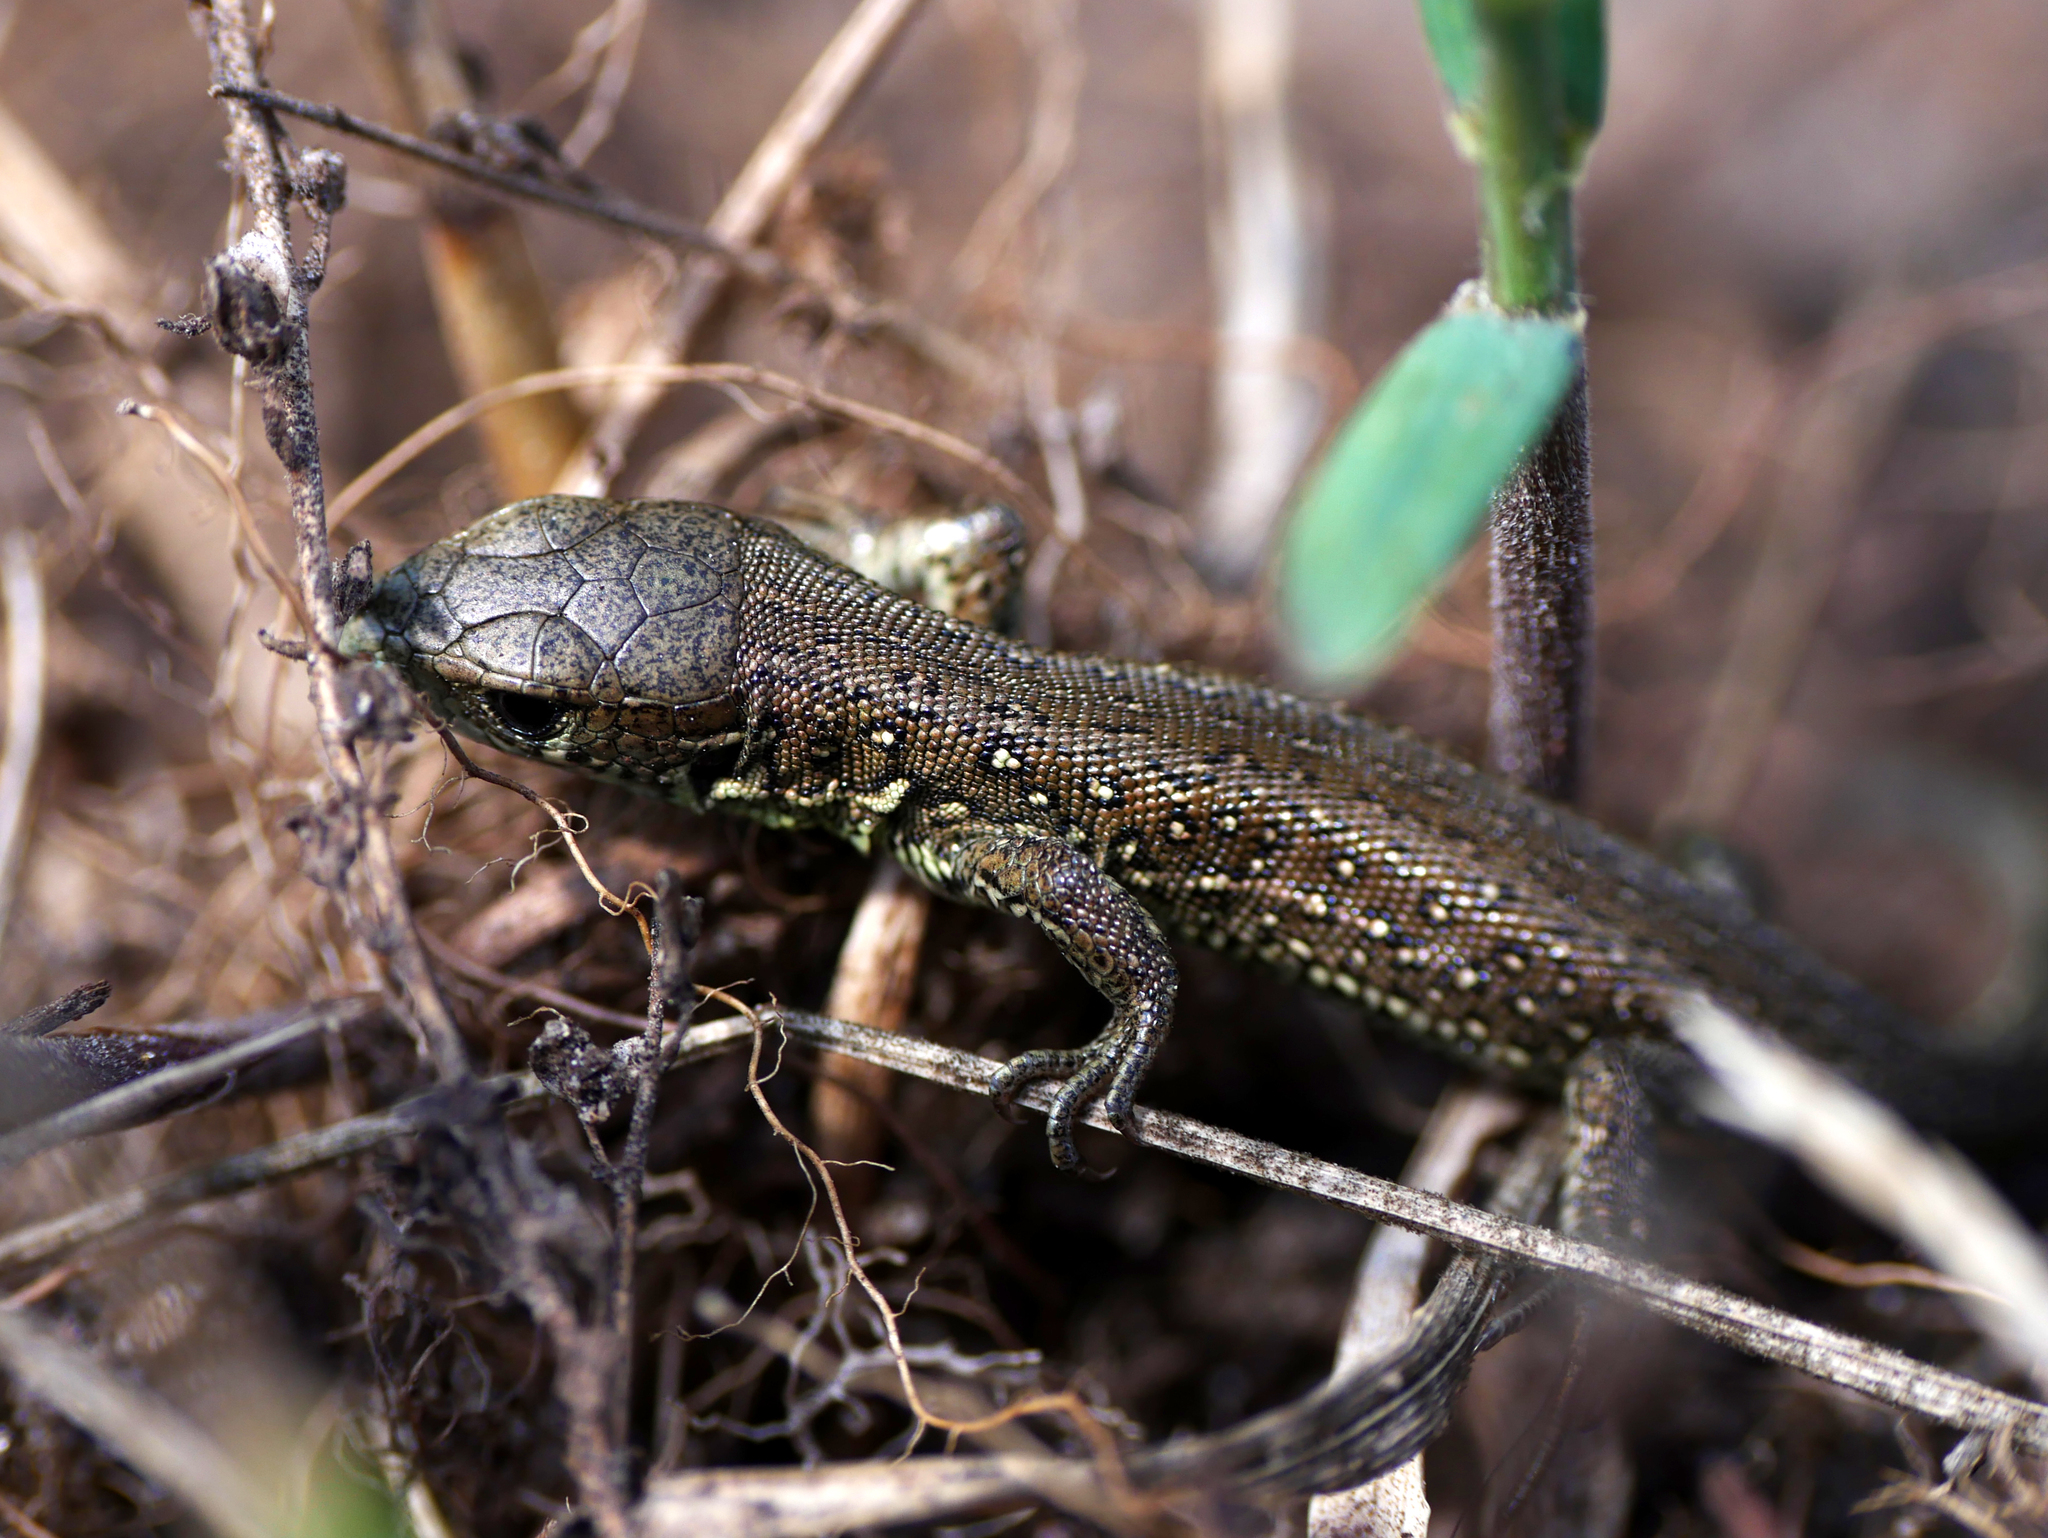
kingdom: Animalia
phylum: Chordata
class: Squamata
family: Lacertidae
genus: Lacerta
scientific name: Lacerta agilis
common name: Sand lizard
